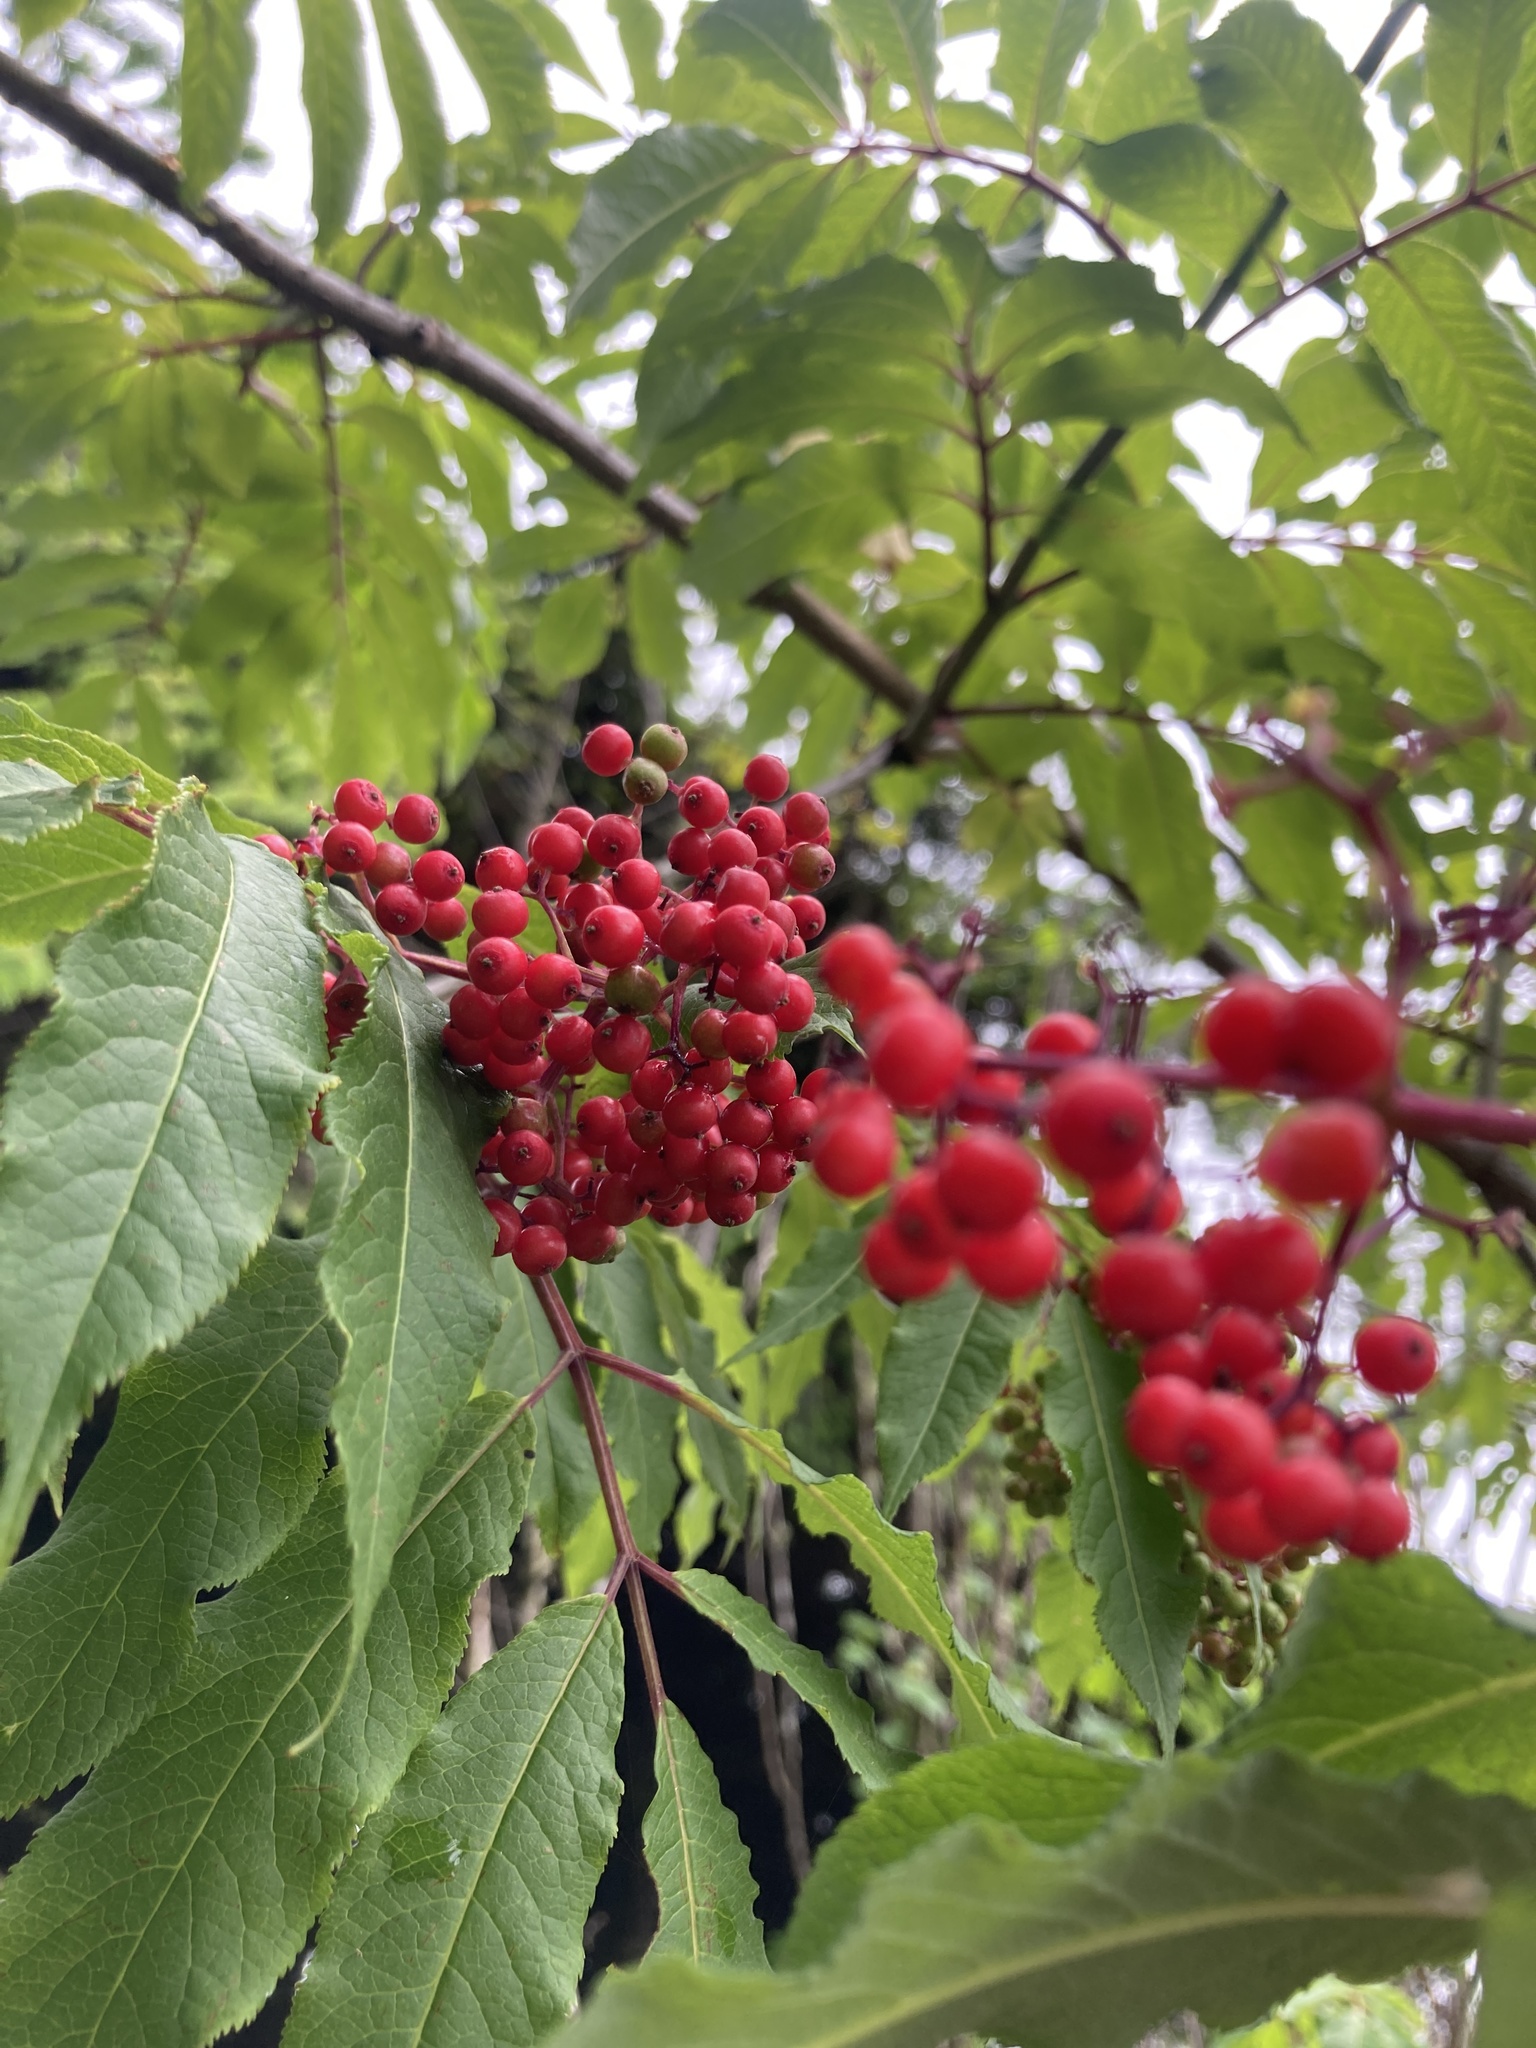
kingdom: Plantae
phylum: Tracheophyta
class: Magnoliopsida
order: Dipsacales
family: Viburnaceae
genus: Sambucus
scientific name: Sambucus racemosa
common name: Red-berried elder
